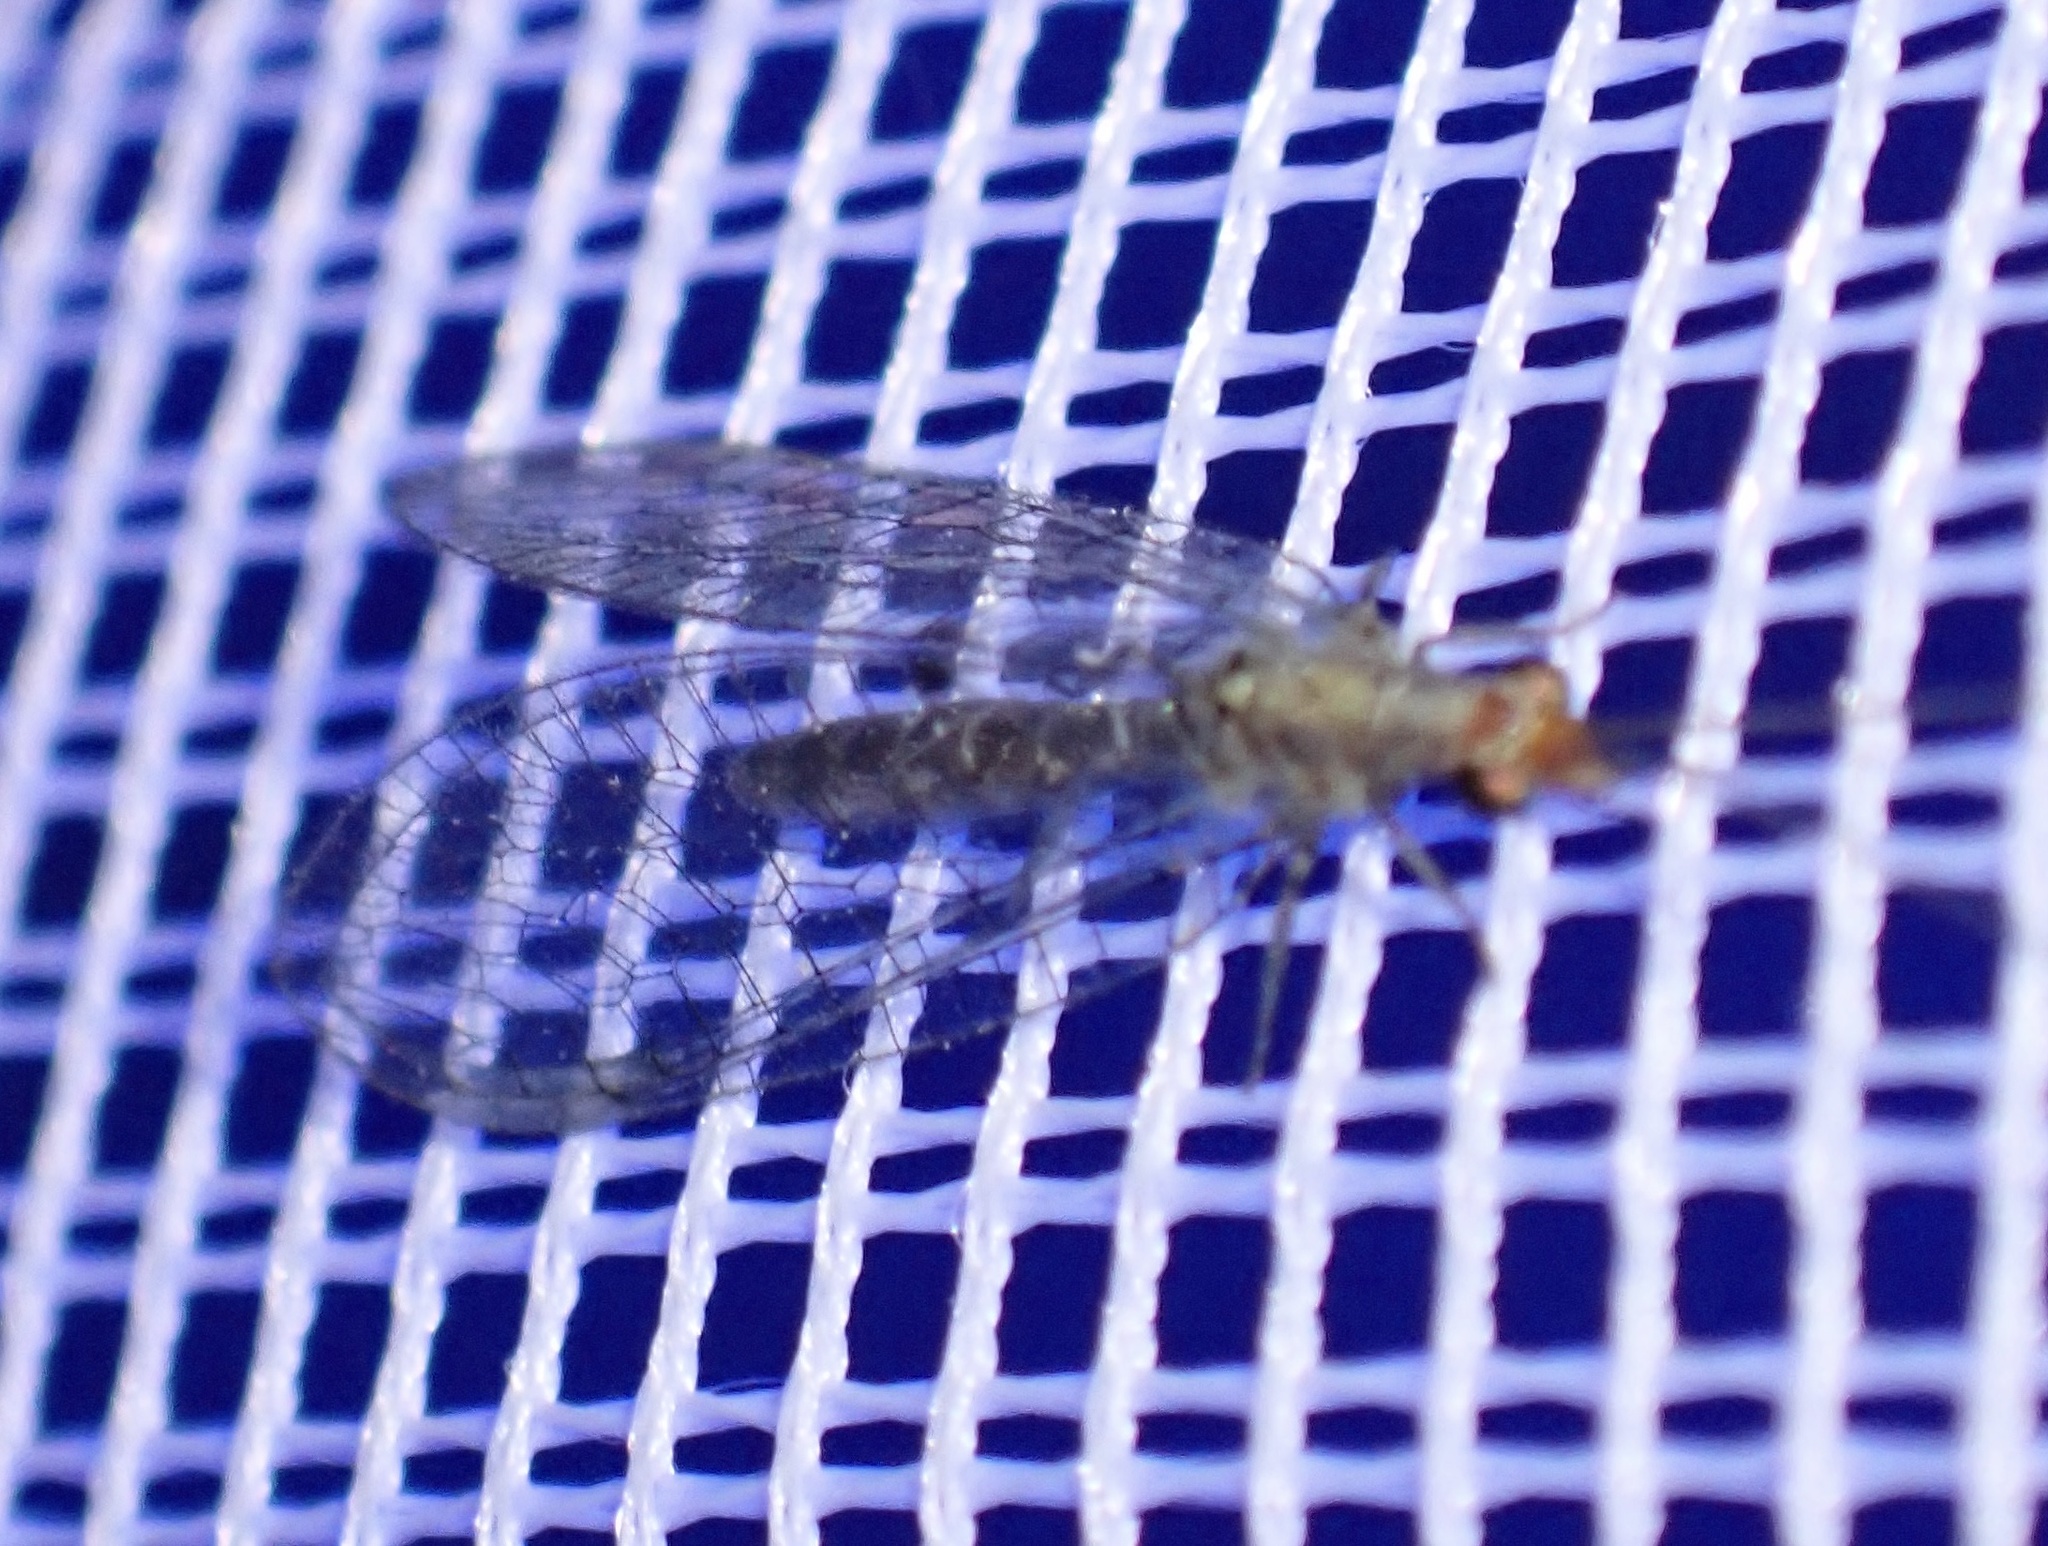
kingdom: Animalia
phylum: Arthropoda
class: Insecta
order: Neuroptera
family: Chrysopidae
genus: Chrysemosa
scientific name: Chrysemosa jeanneli
